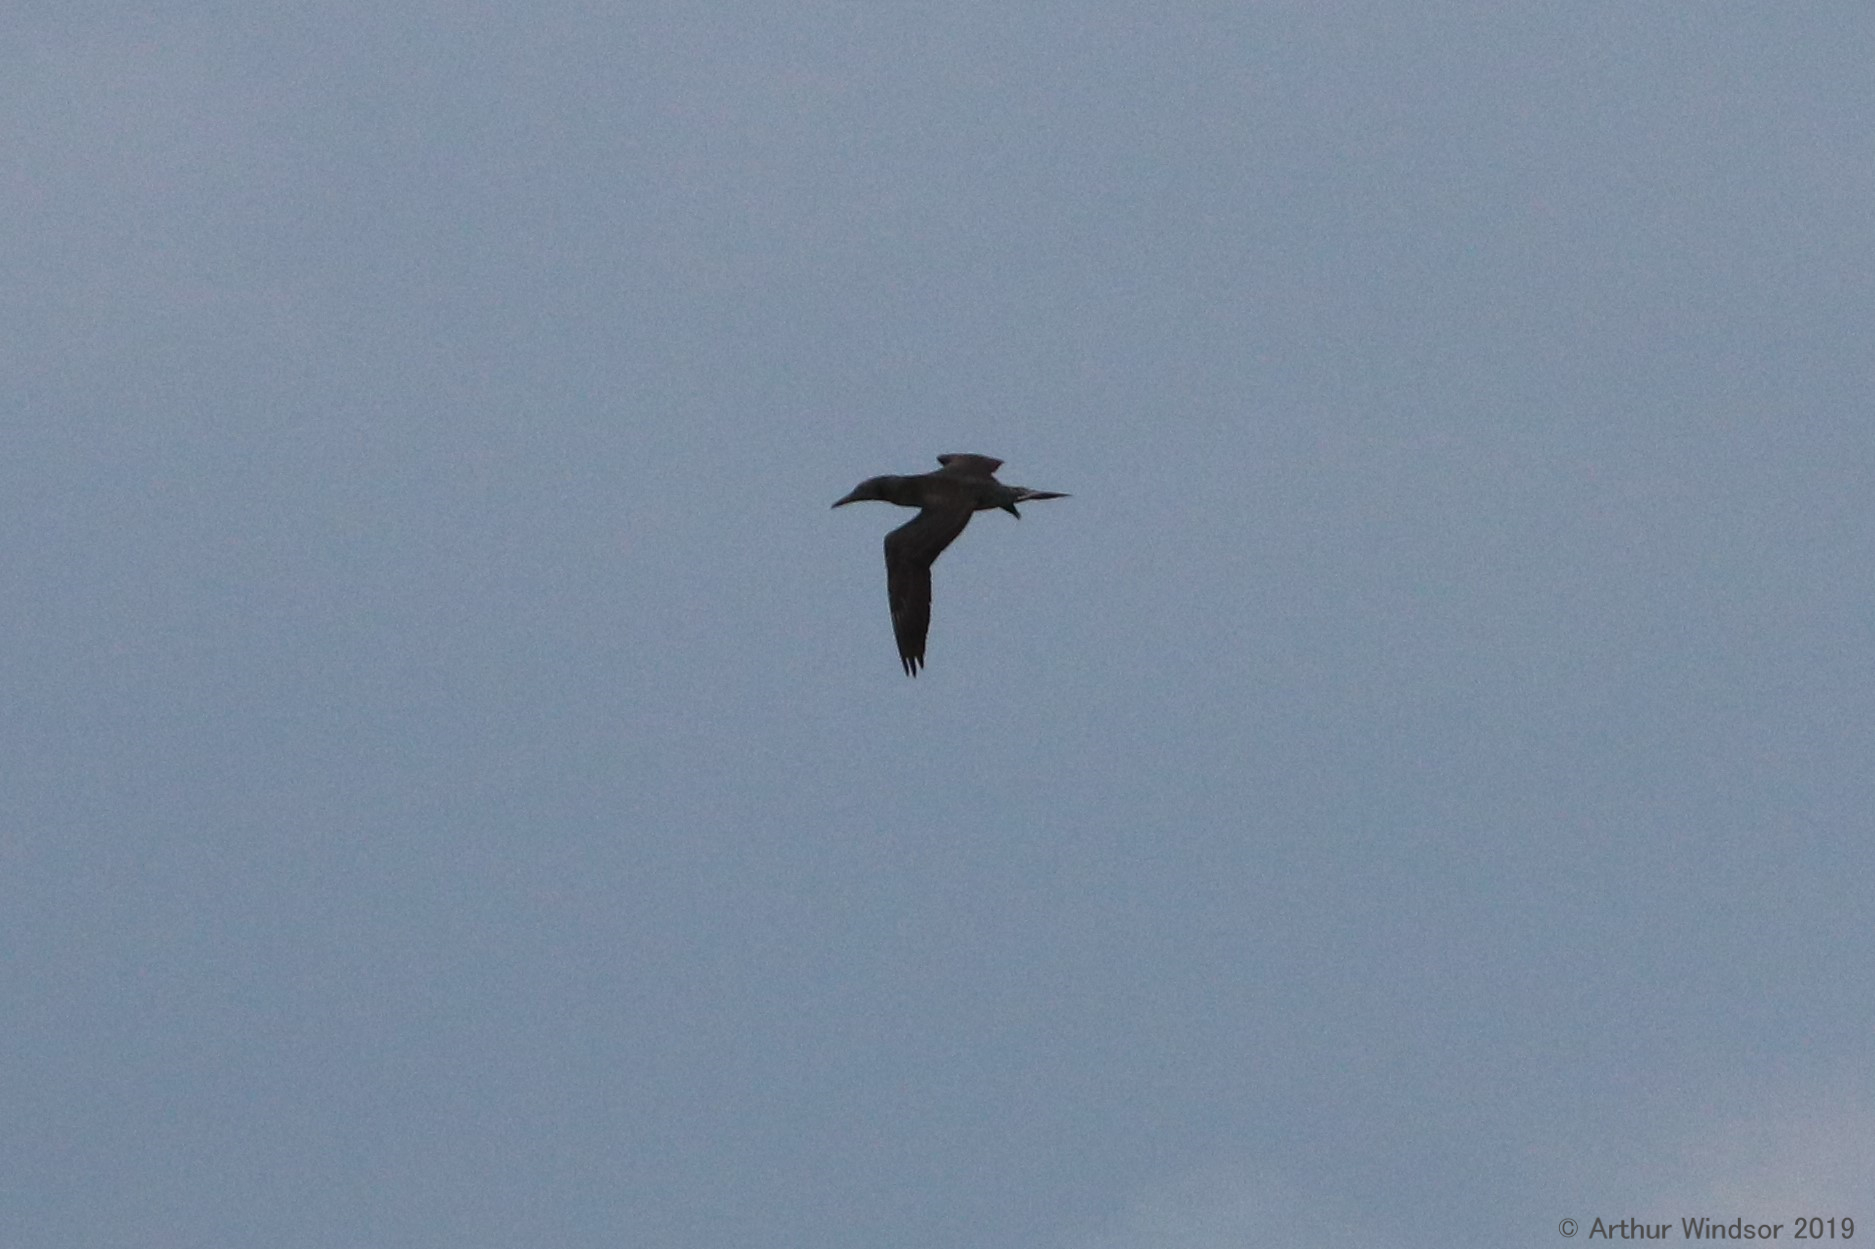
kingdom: Animalia
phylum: Chordata
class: Aves
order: Suliformes
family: Sulidae
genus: Morus
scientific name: Morus bassanus
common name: Northern gannet
